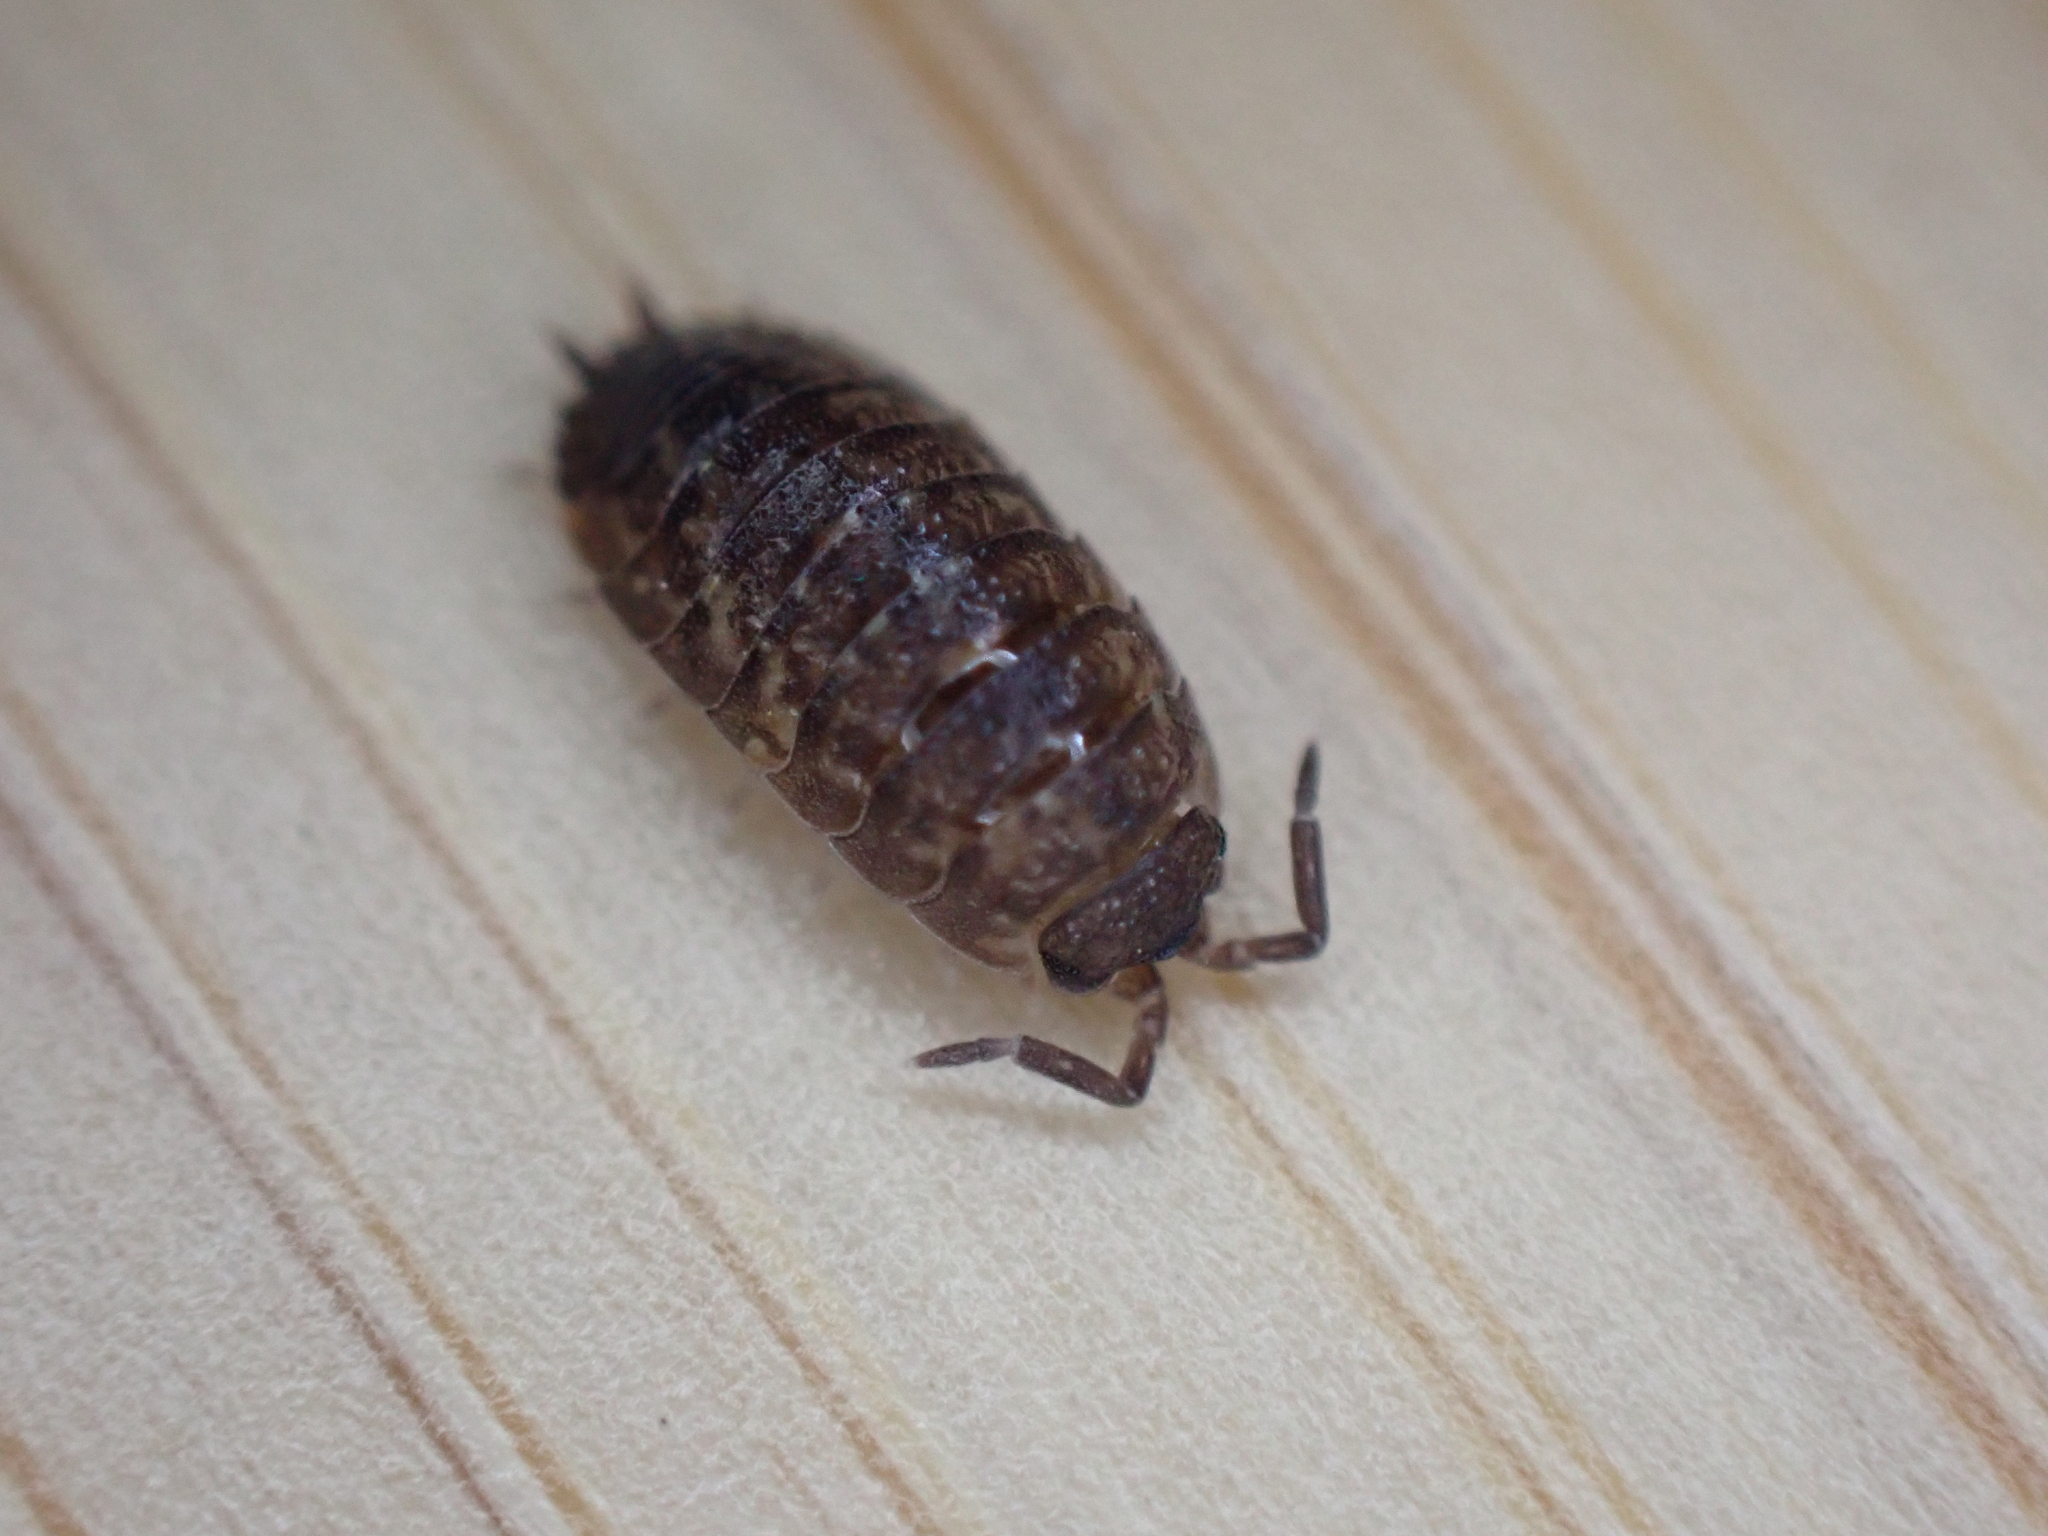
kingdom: Animalia
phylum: Arthropoda
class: Malacostraca
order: Isopoda
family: Porcellionidae
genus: Porcellio
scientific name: Porcellio scaber
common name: Common rough woodlouse
